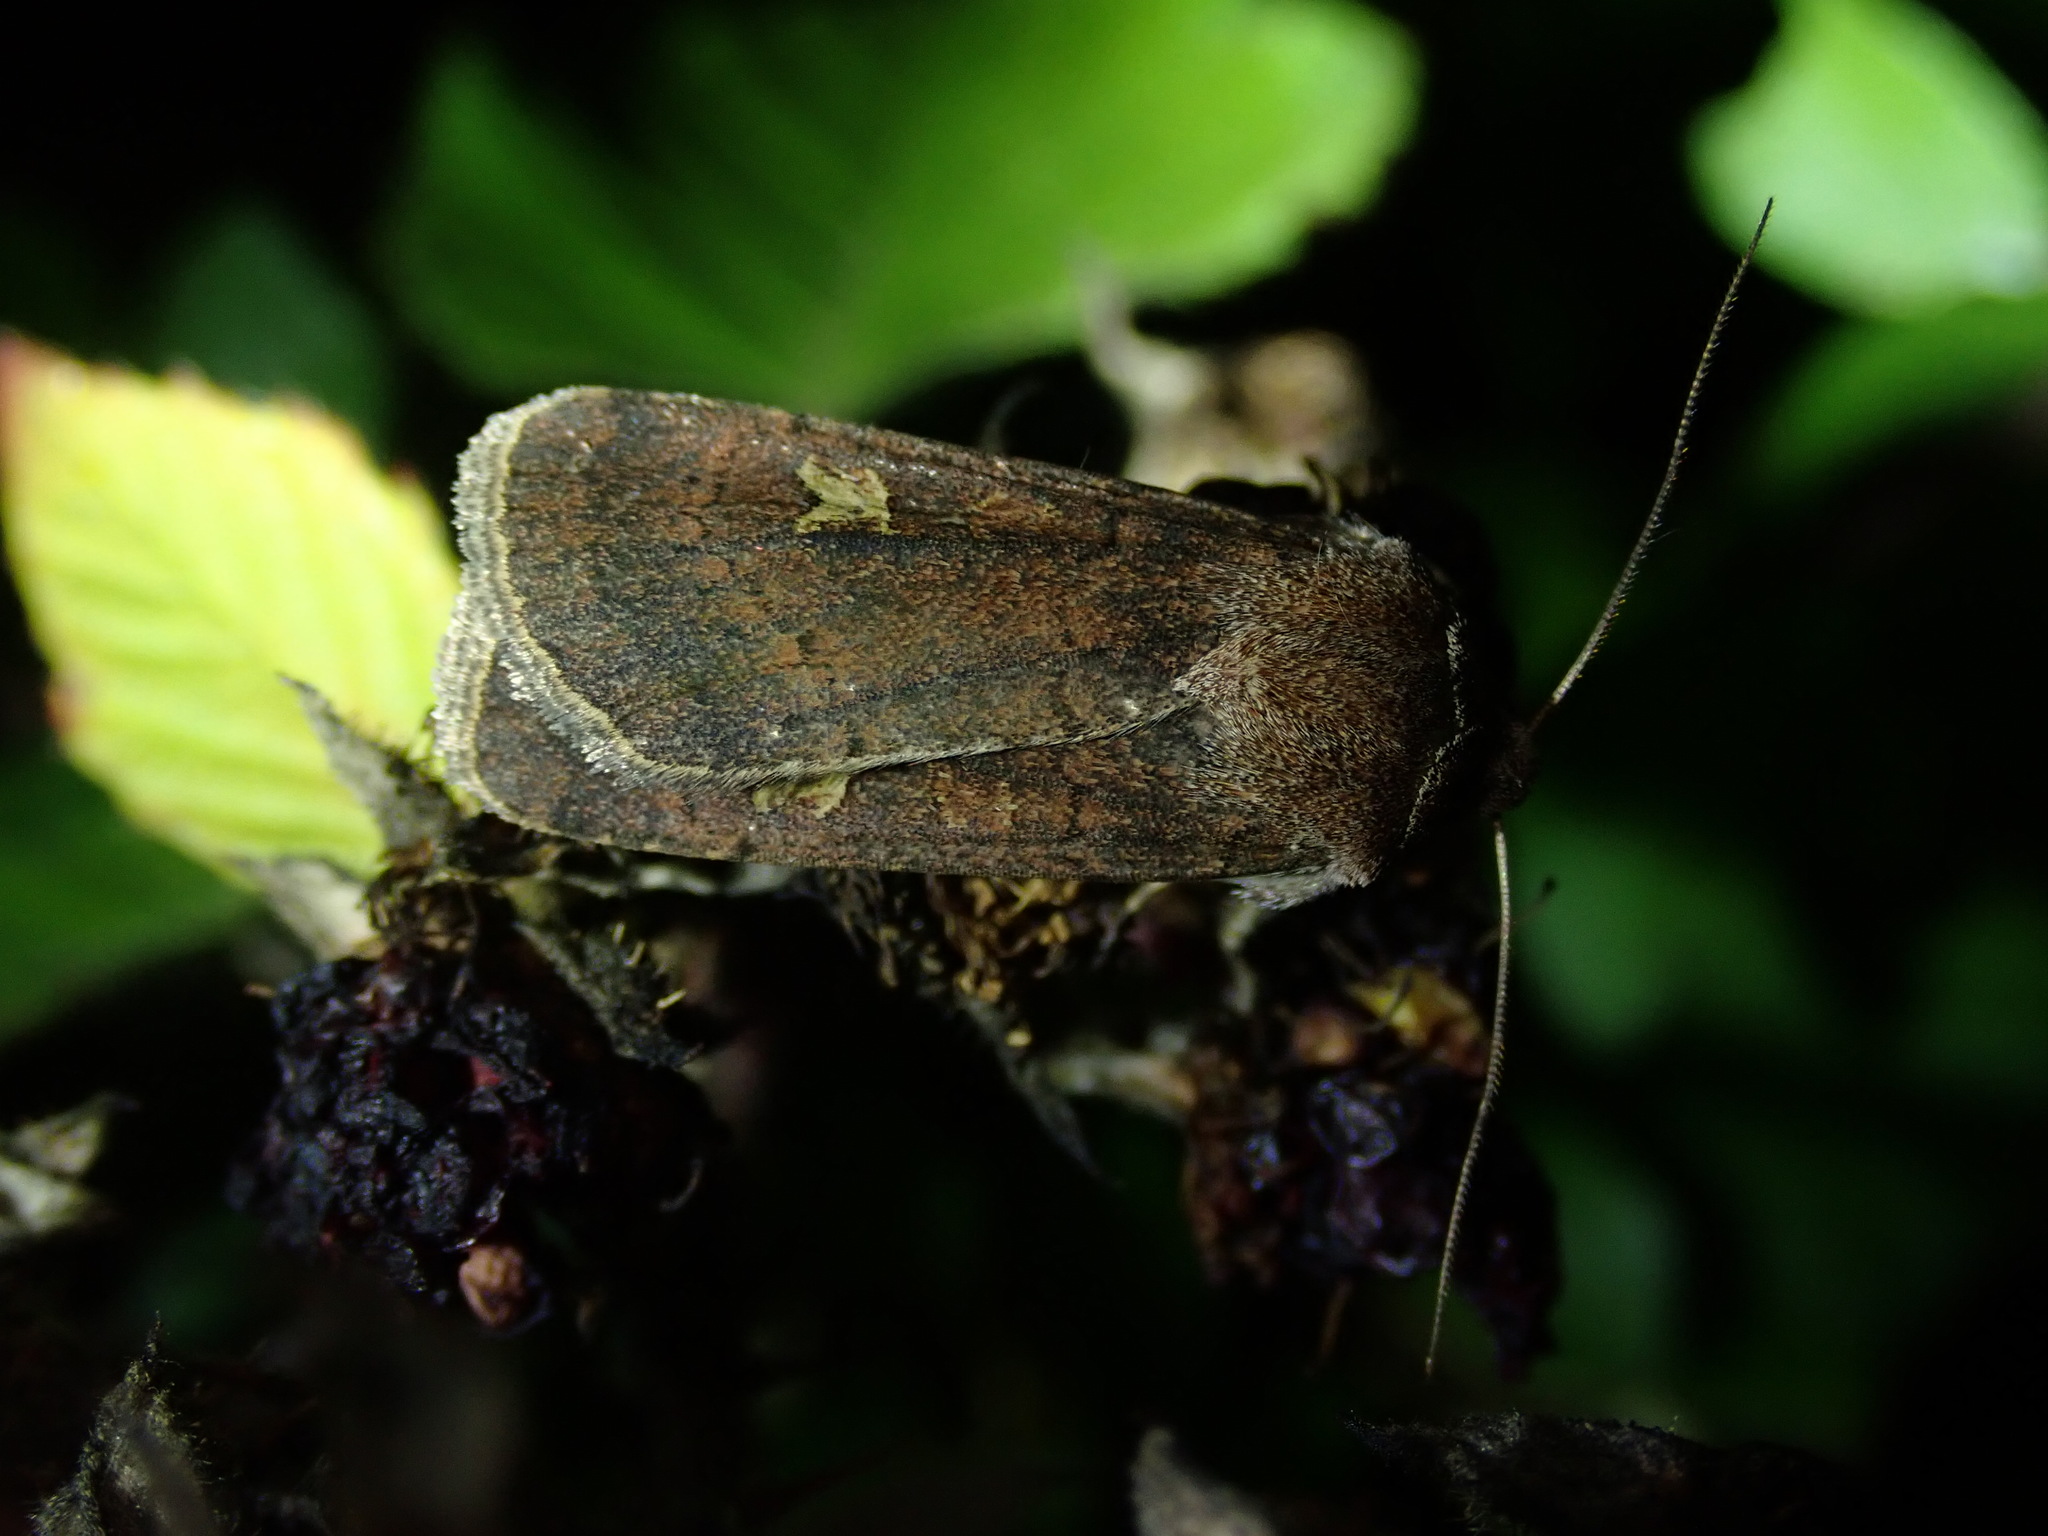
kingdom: Animalia
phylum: Arthropoda
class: Insecta
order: Lepidoptera
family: Noctuidae
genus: Xestia
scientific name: Xestia xanthographa
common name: Square-spot rustic
